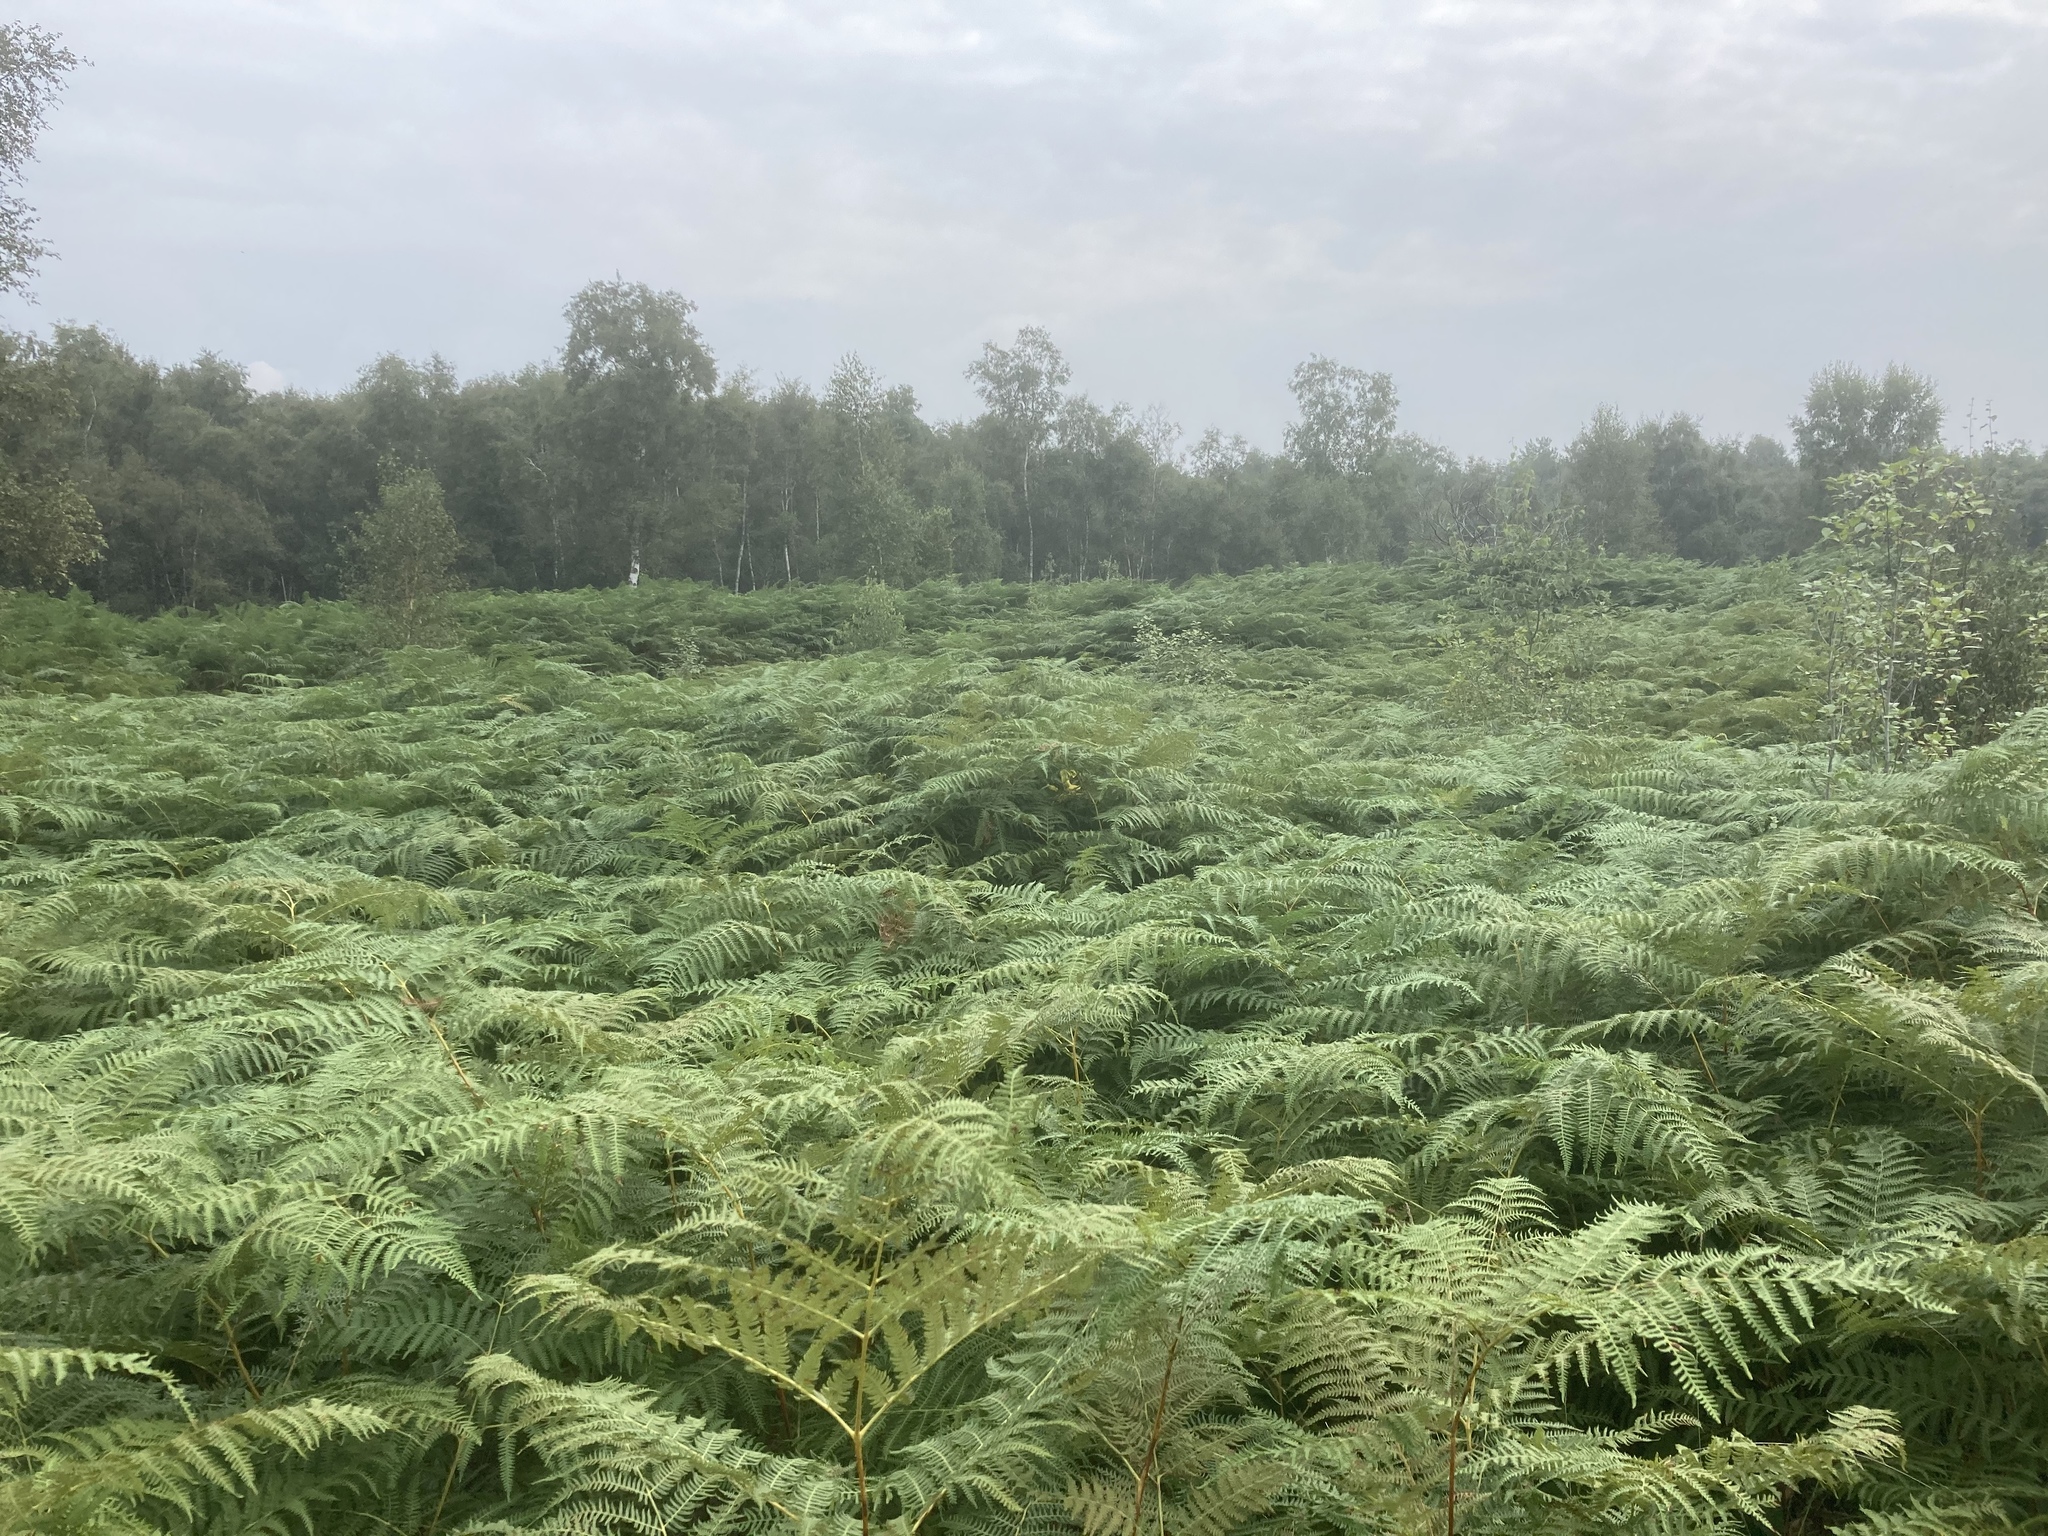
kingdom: Plantae
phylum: Tracheophyta
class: Polypodiopsida
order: Polypodiales
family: Dennstaedtiaceae
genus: Pteridium
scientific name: Pteridium aquilinum
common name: Bracken
